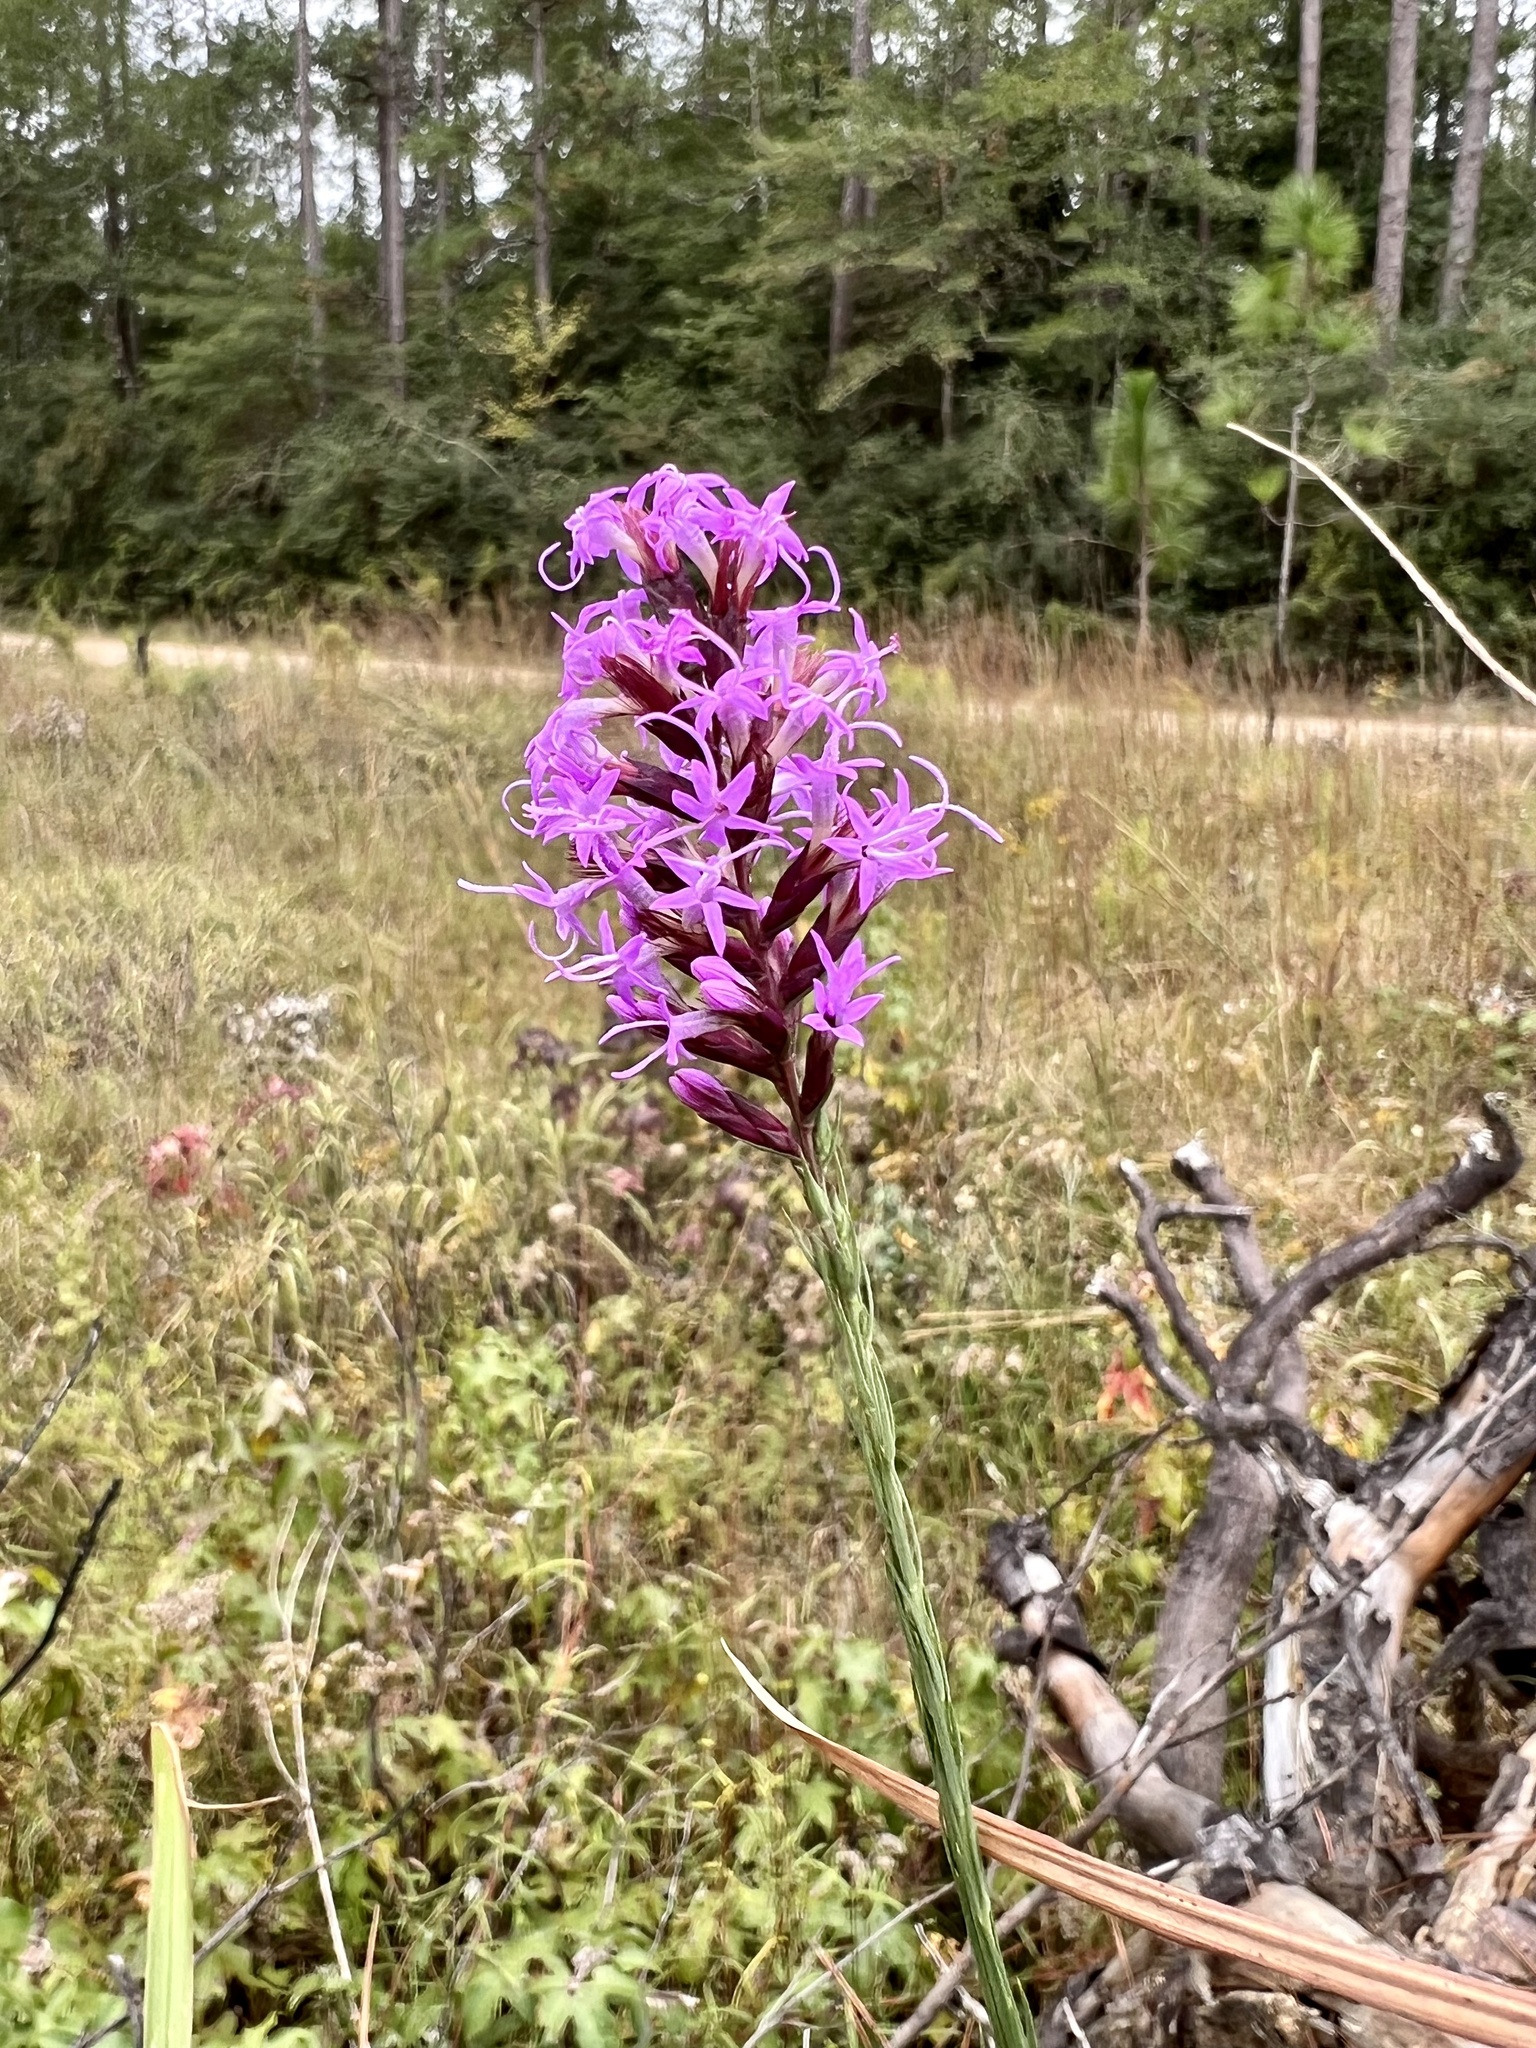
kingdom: Plantae
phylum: Tracheophyta
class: Magnoliopsida
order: Asterales
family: Asteraceae
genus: Liatris
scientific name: Liatris acidota
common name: Gulf coast gayfeather
